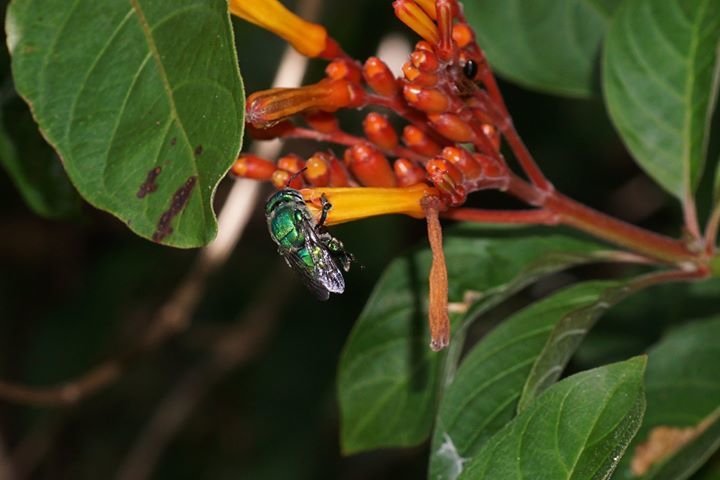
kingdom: Animalia
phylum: Arthropoda
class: Insecta
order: Hymenoptera
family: Apidae
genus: Euglossa
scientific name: Euglossa dilemma
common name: Green orchid bee
